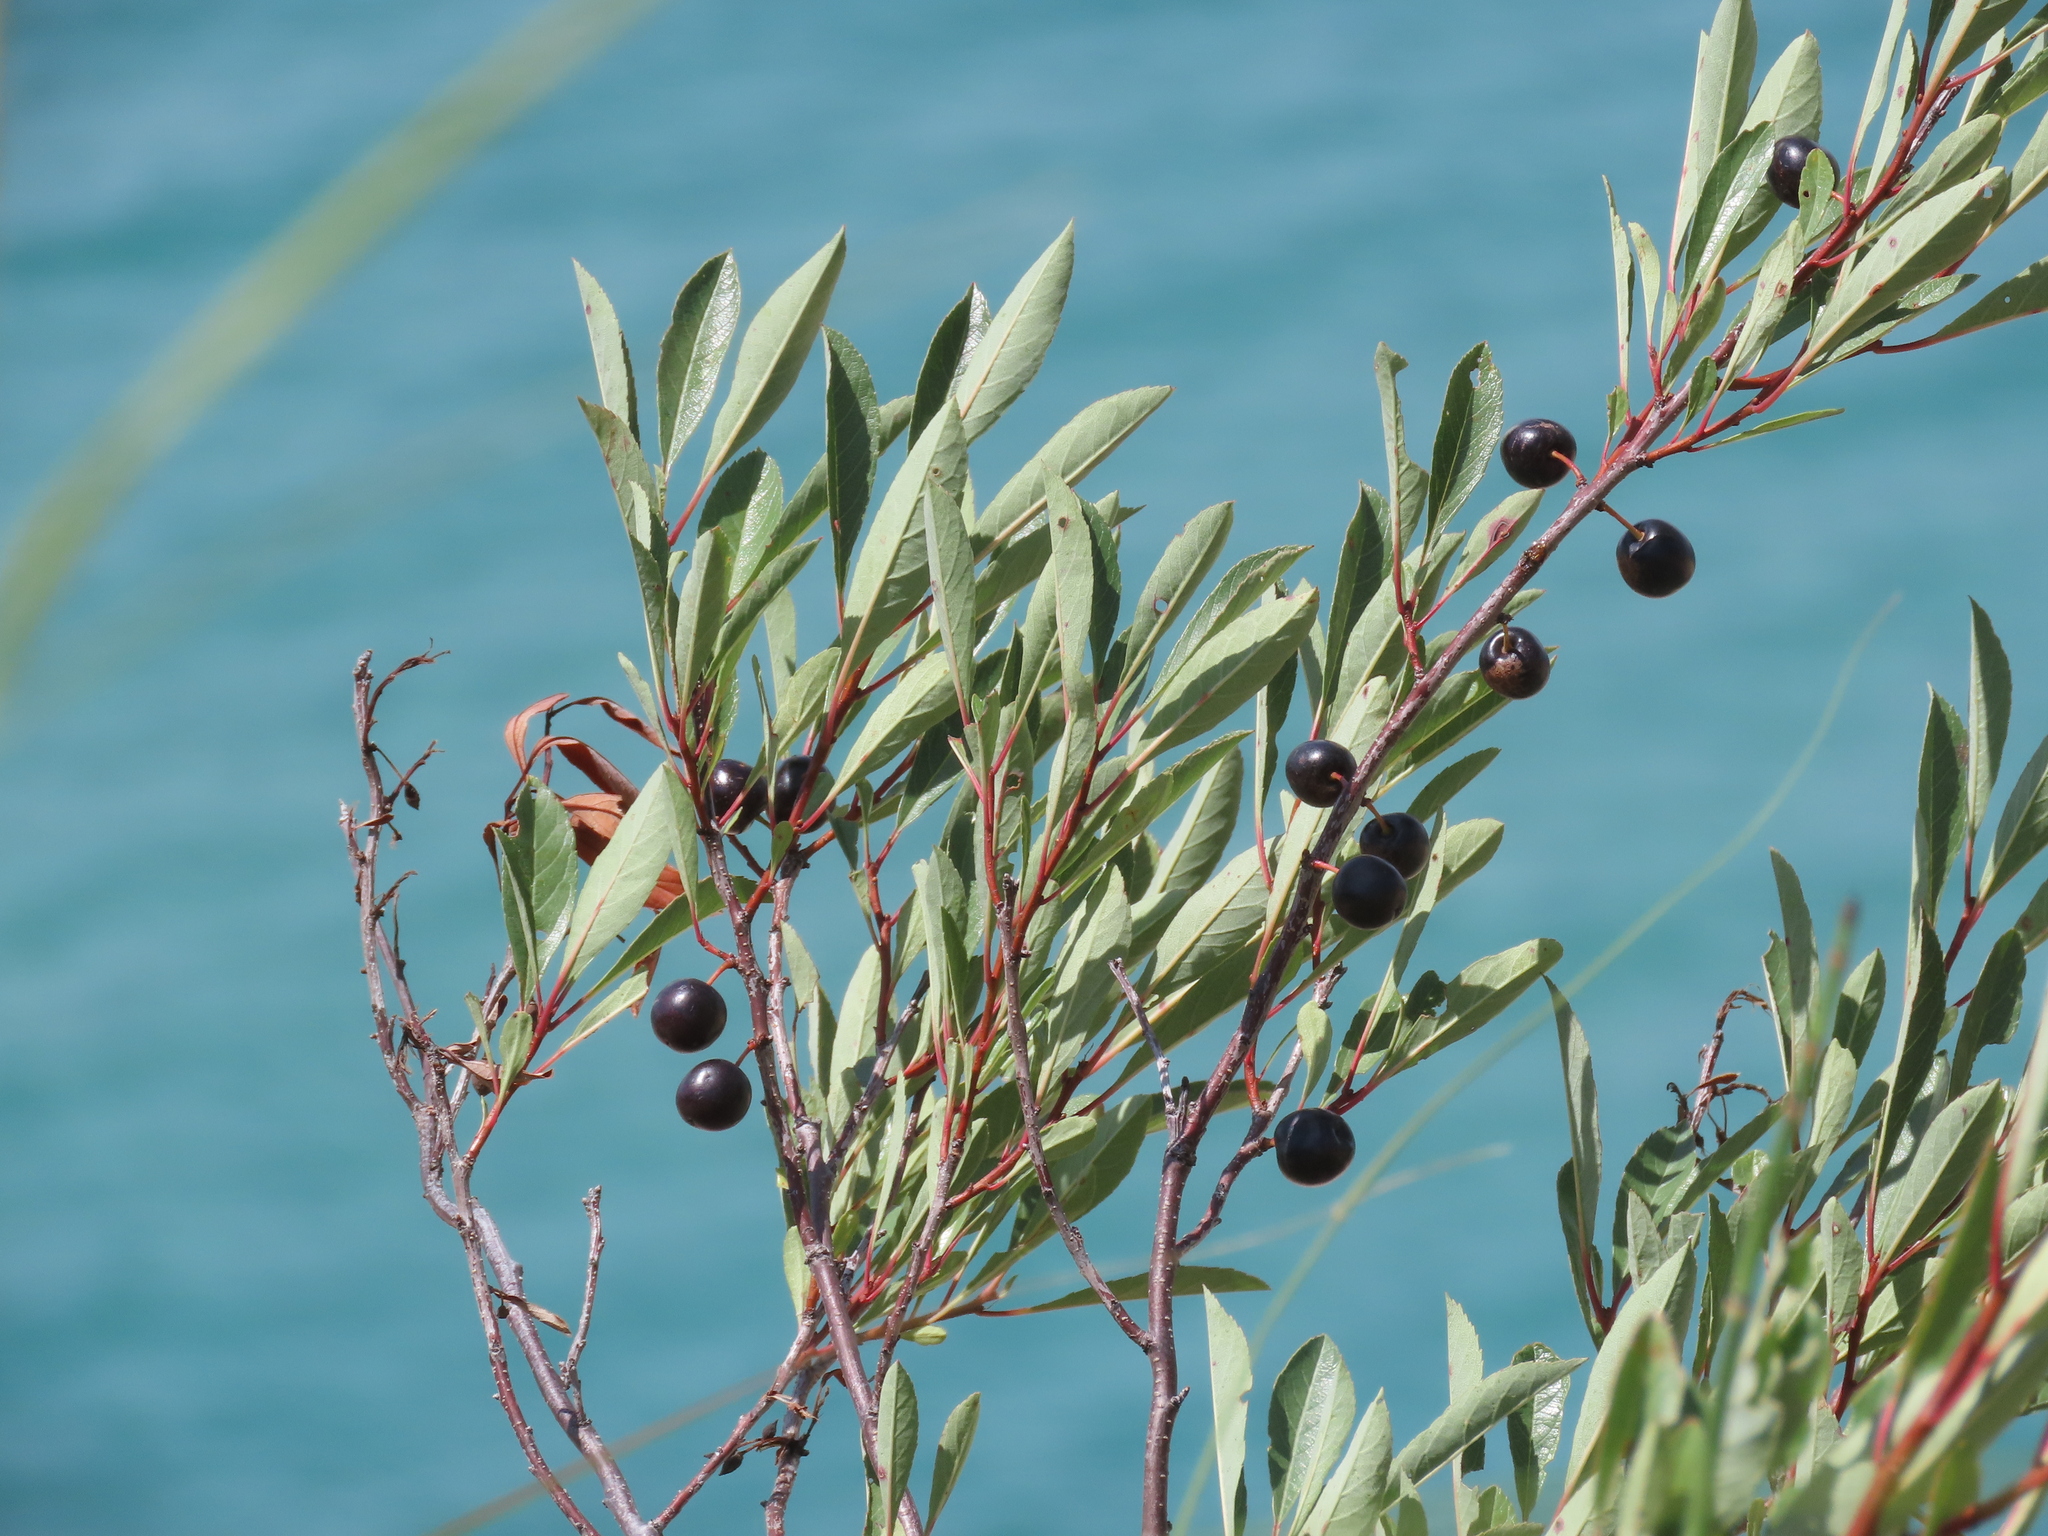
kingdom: Plantae
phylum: Tracheophyta
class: Magnoliopsida
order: Rosales
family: Rosaceae
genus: Prunus
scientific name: Prunus pumila
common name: Dwarf cherry
